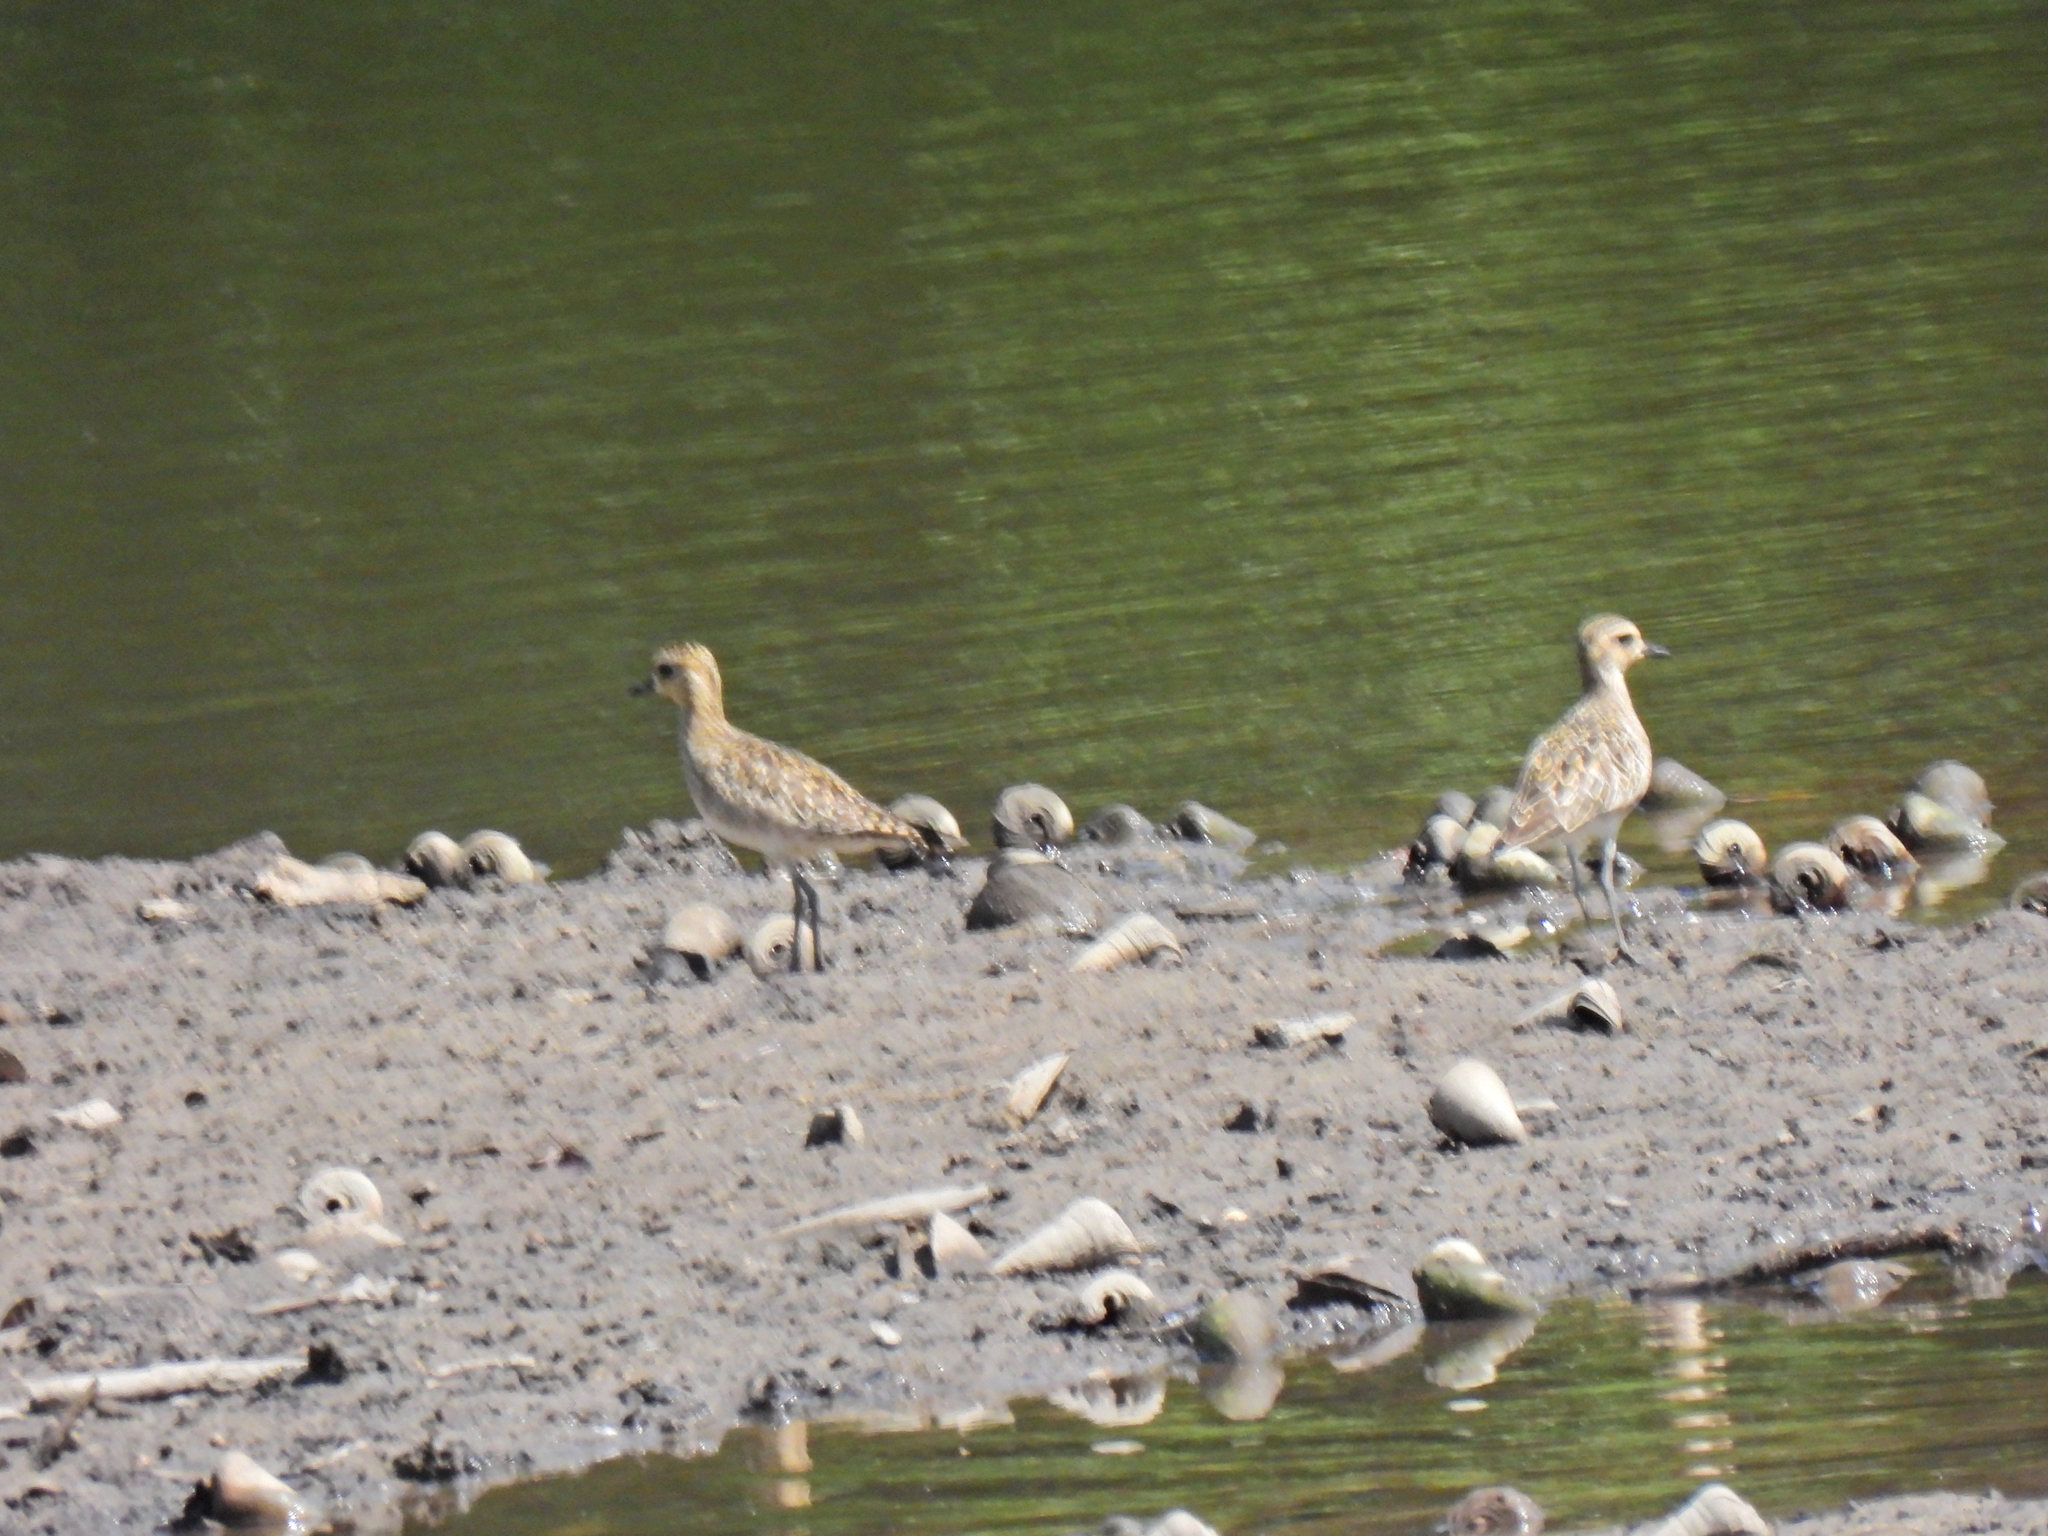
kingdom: Animalia
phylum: Chordata
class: Aves
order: Charadriiformes
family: Charadriidae
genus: Pluvialis
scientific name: Pluvialis fulva
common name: Pacific golden plover
